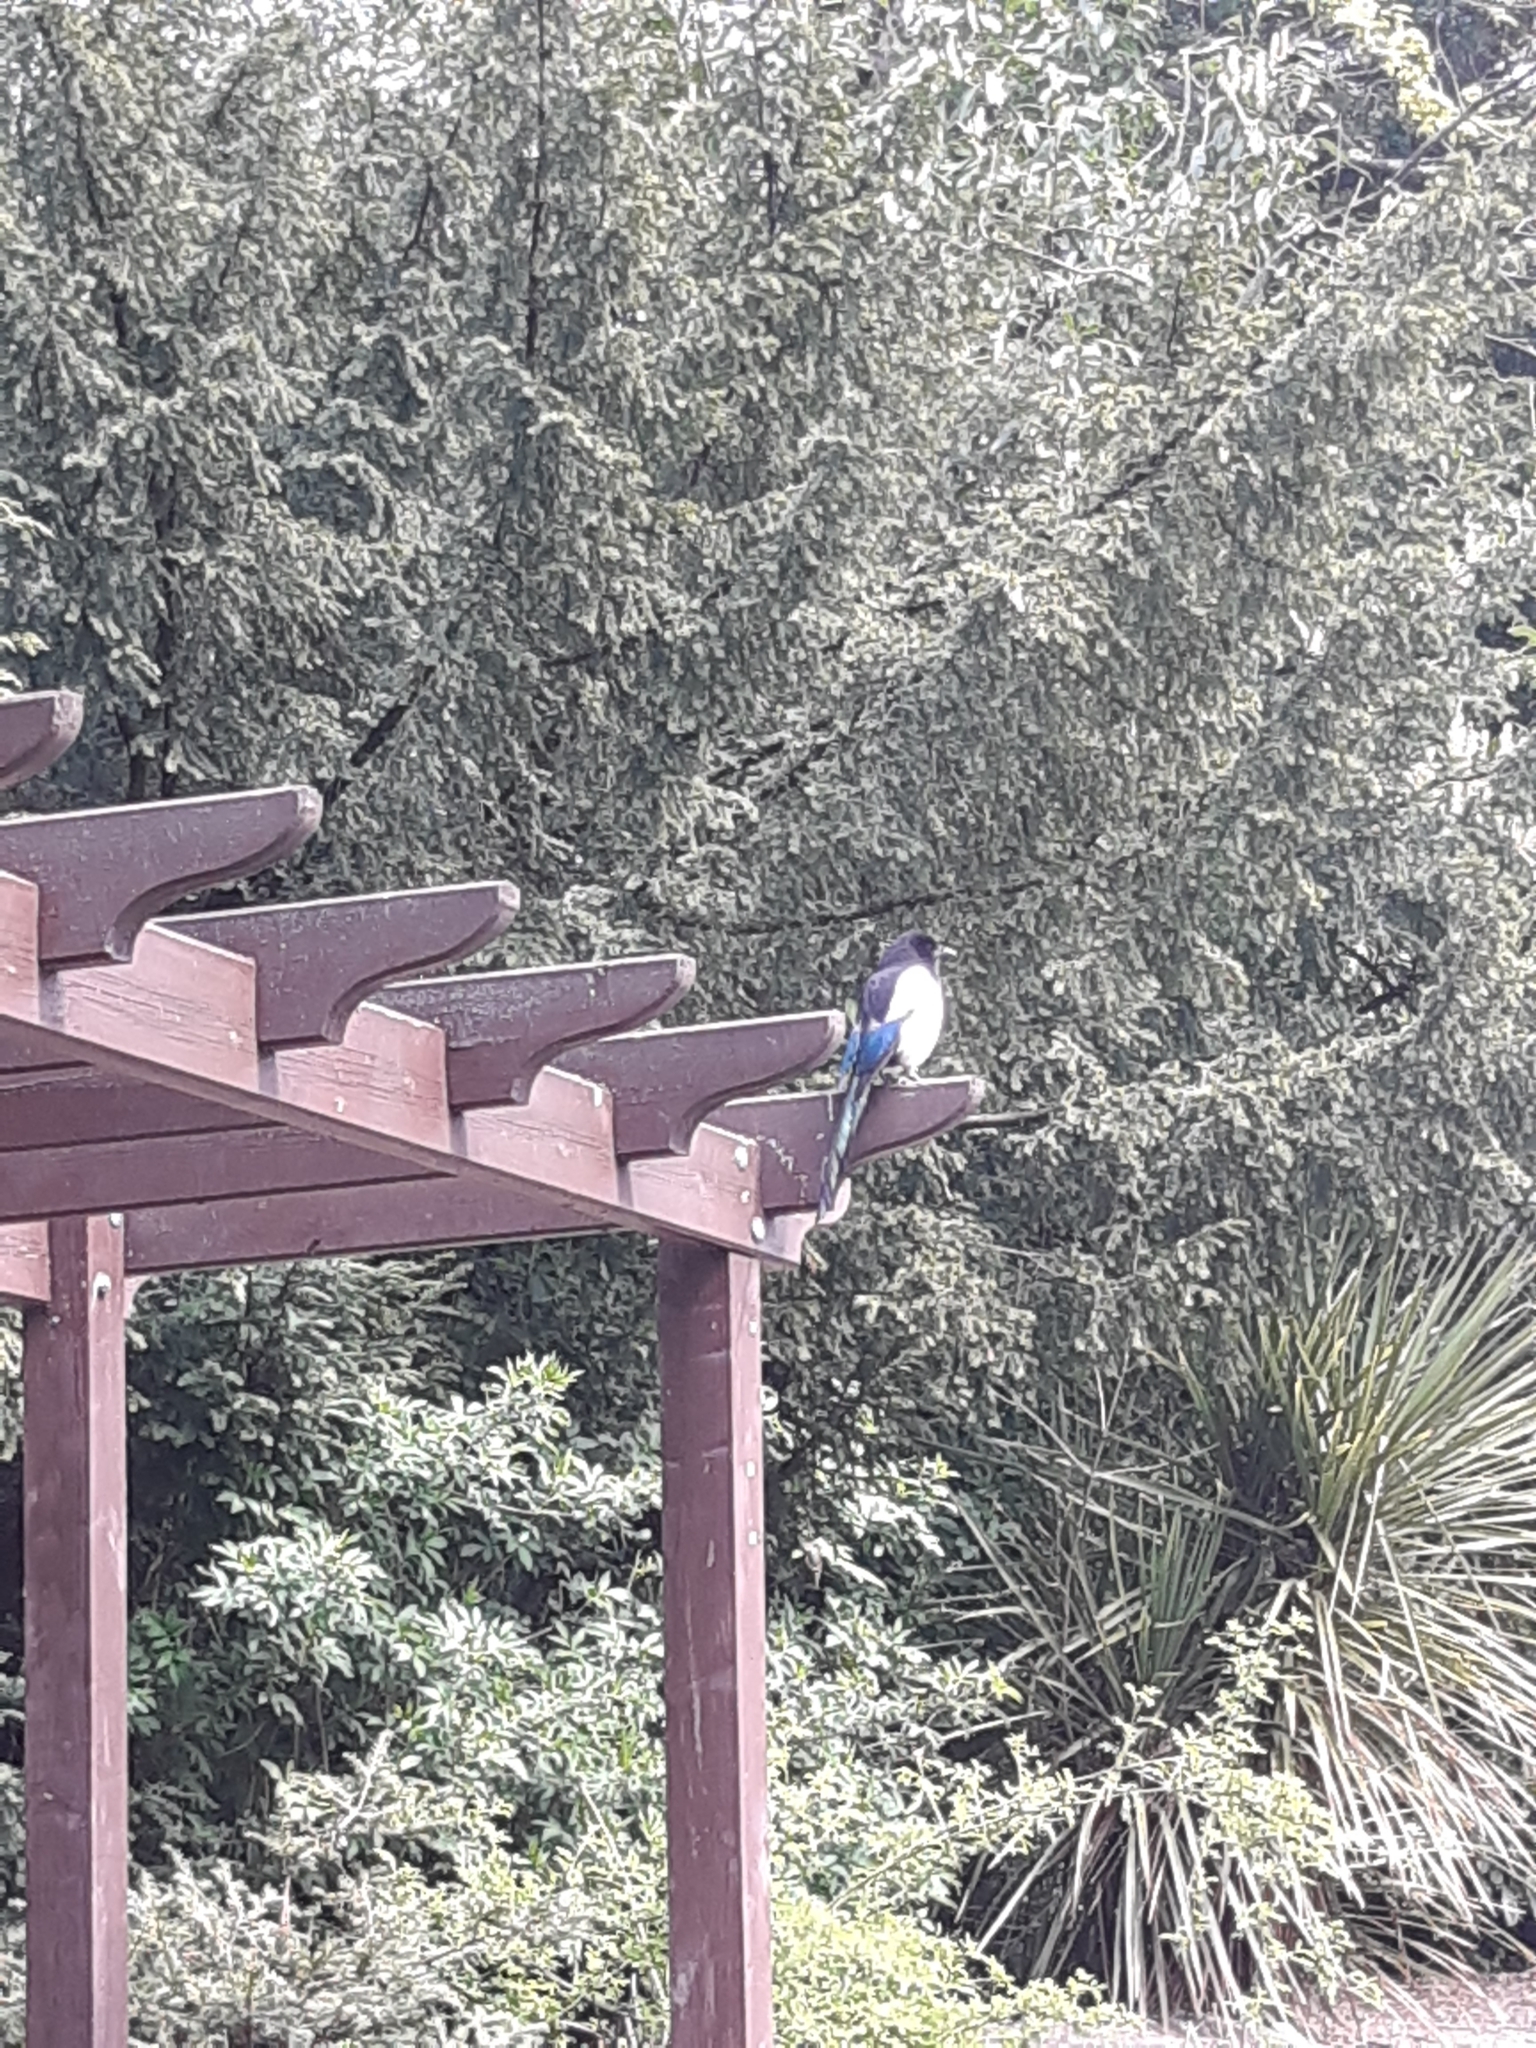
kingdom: Animalia
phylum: Chordata
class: Aves
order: Passeriformes
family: Corvidae
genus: Pica
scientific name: Pica pica
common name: Eurasian magpie
